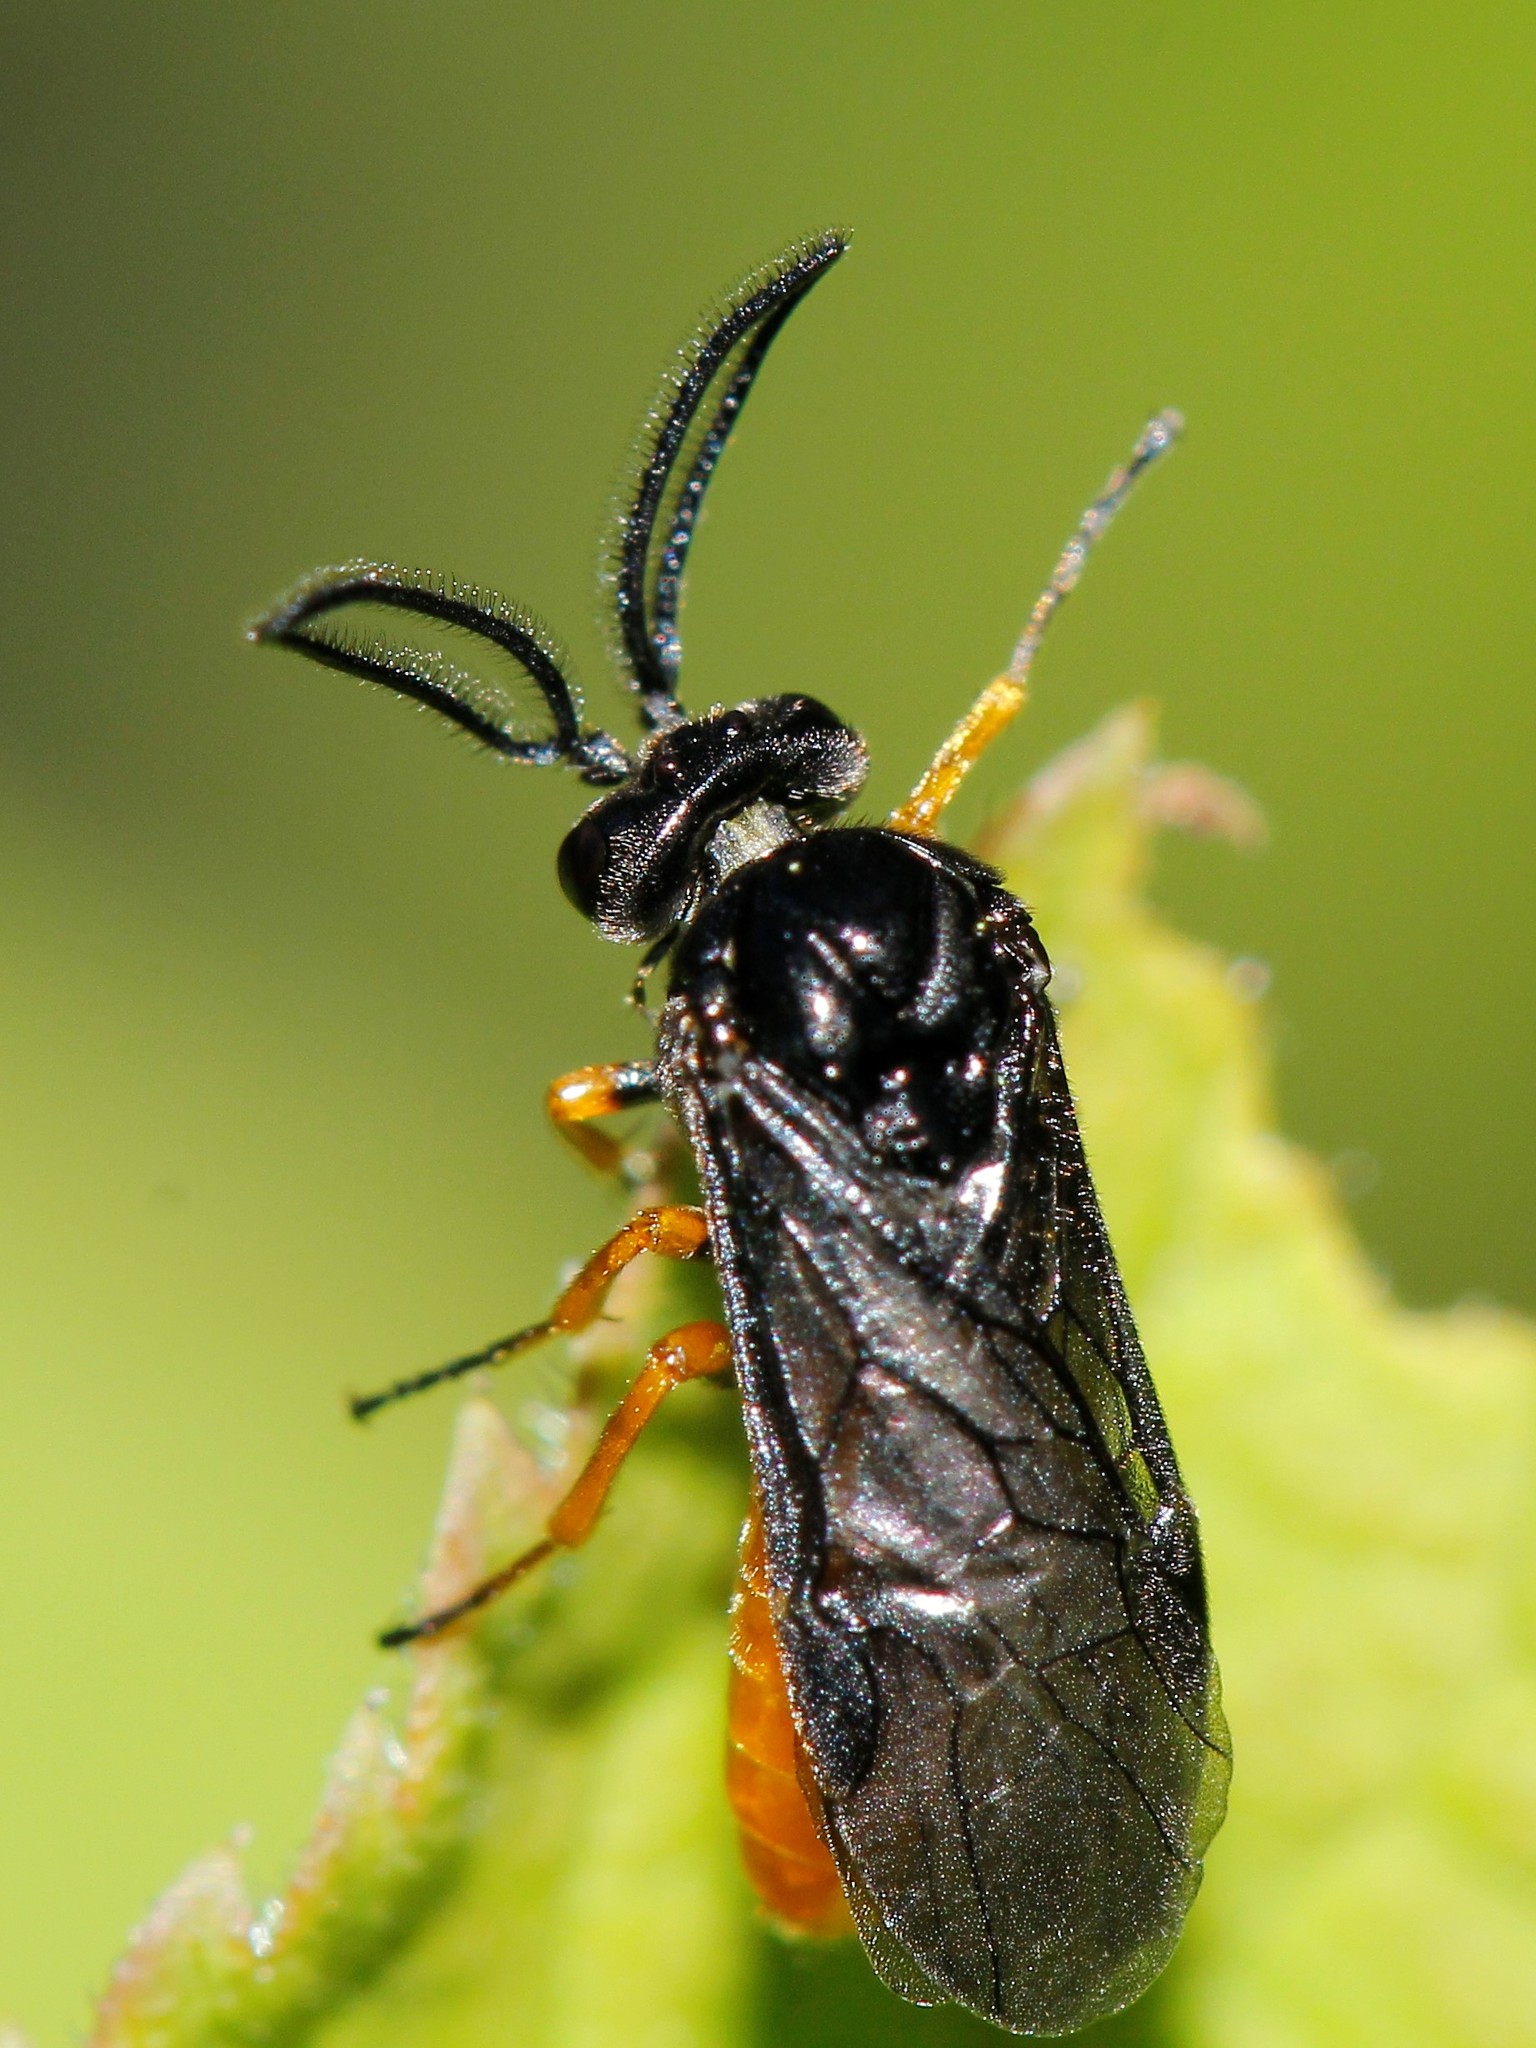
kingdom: Animalia
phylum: Arthropoda
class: Insecta
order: Hymenoptera
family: Argidae
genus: Sterictiphora
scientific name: Sterictiphora furcata
